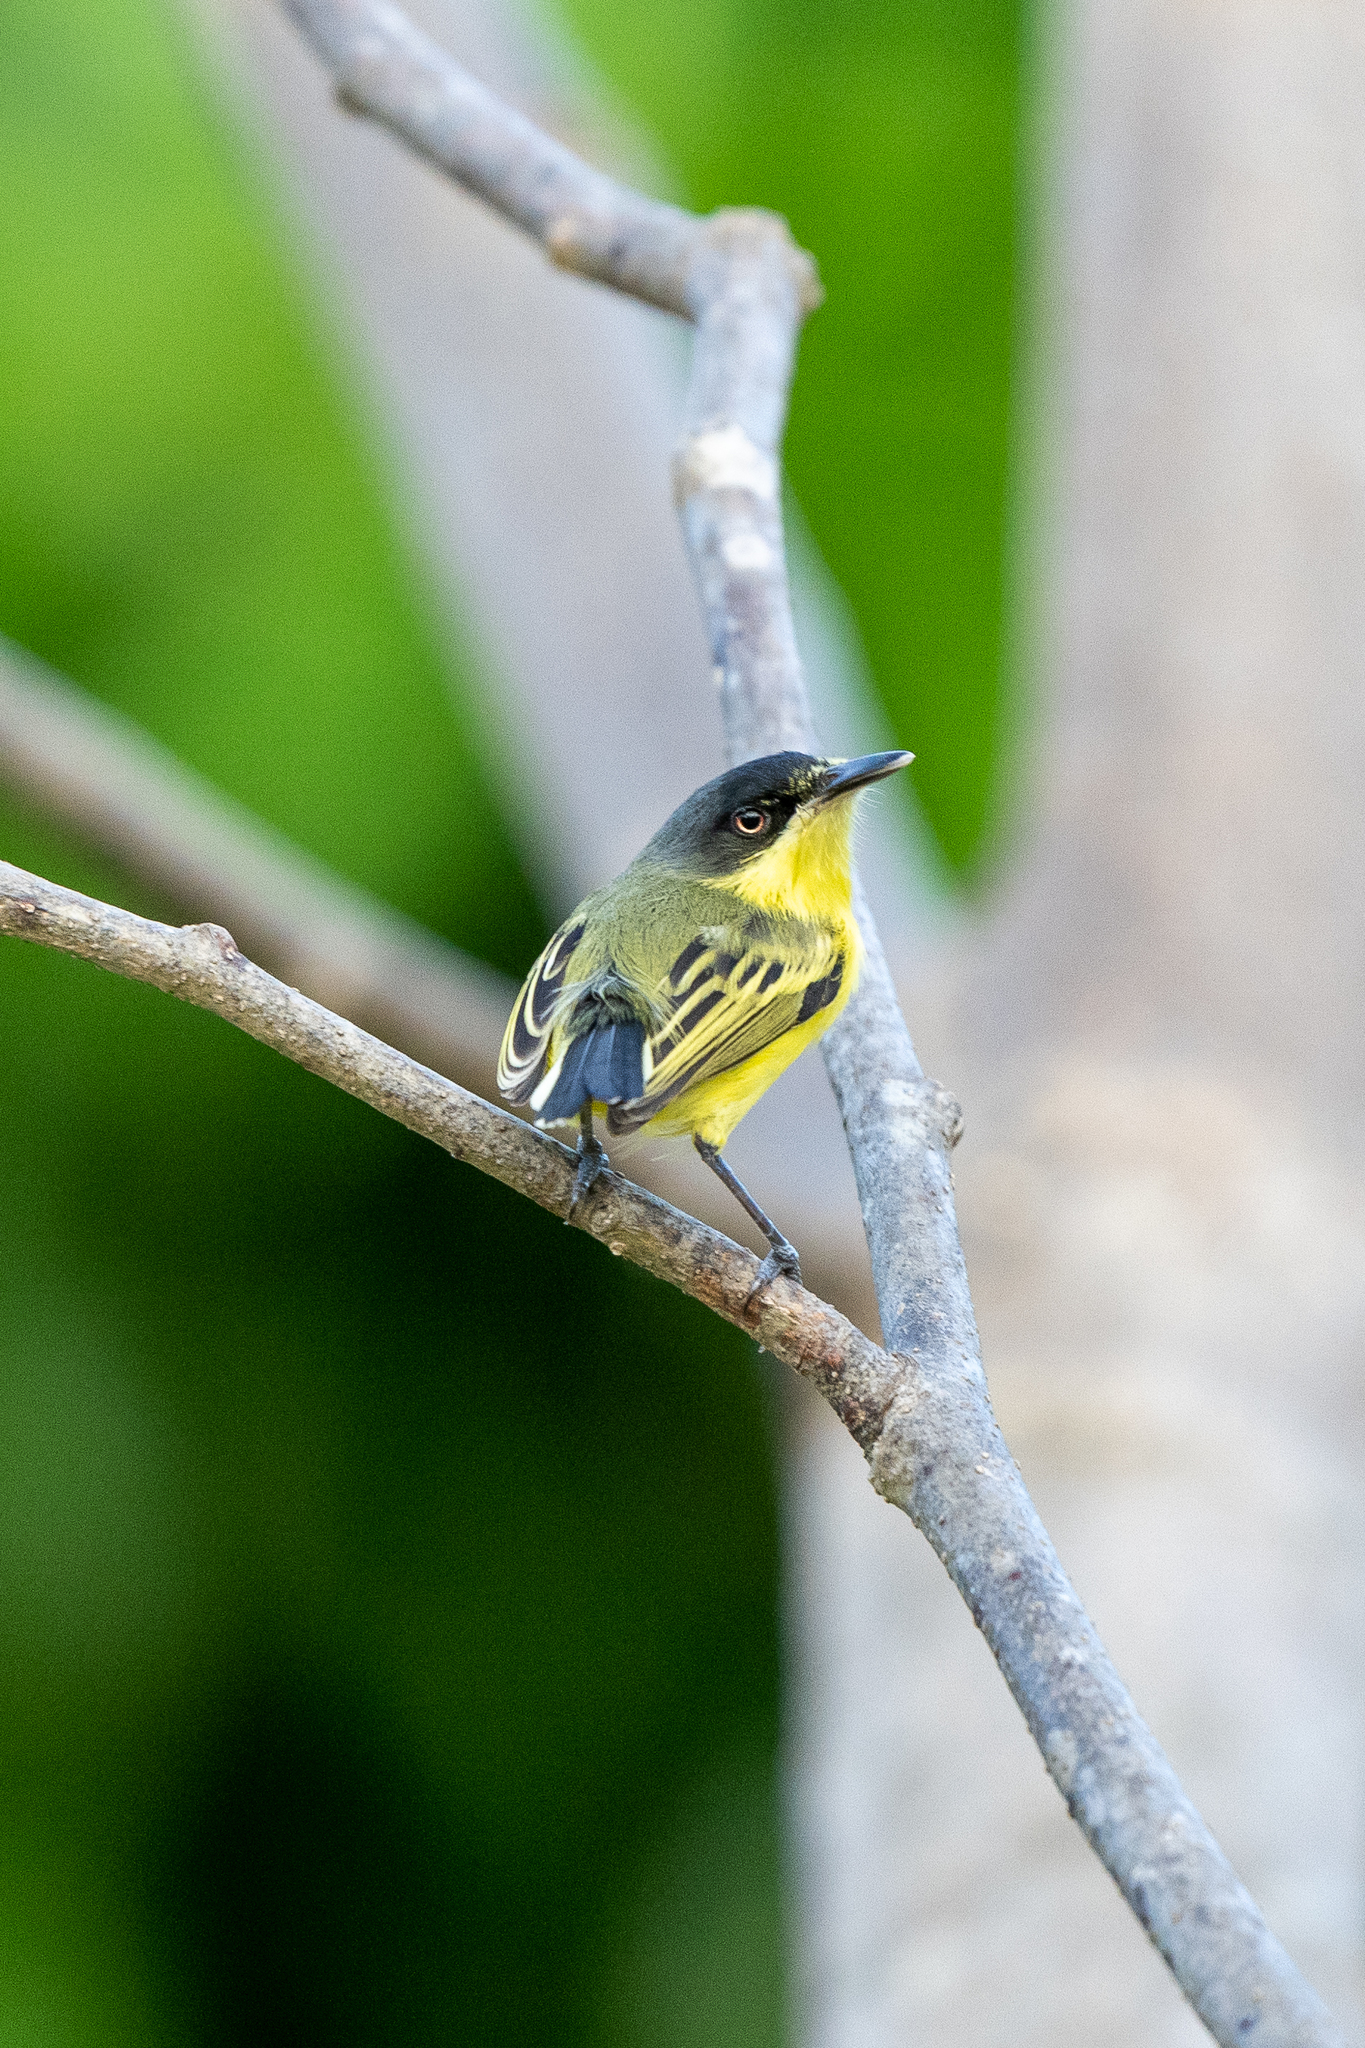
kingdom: Animalia
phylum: Chordata
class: Aves
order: Passeriformes
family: Tyrannidae
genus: Todirostrum
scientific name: Todirostrum cinereum
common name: Common tody-flycatcher
